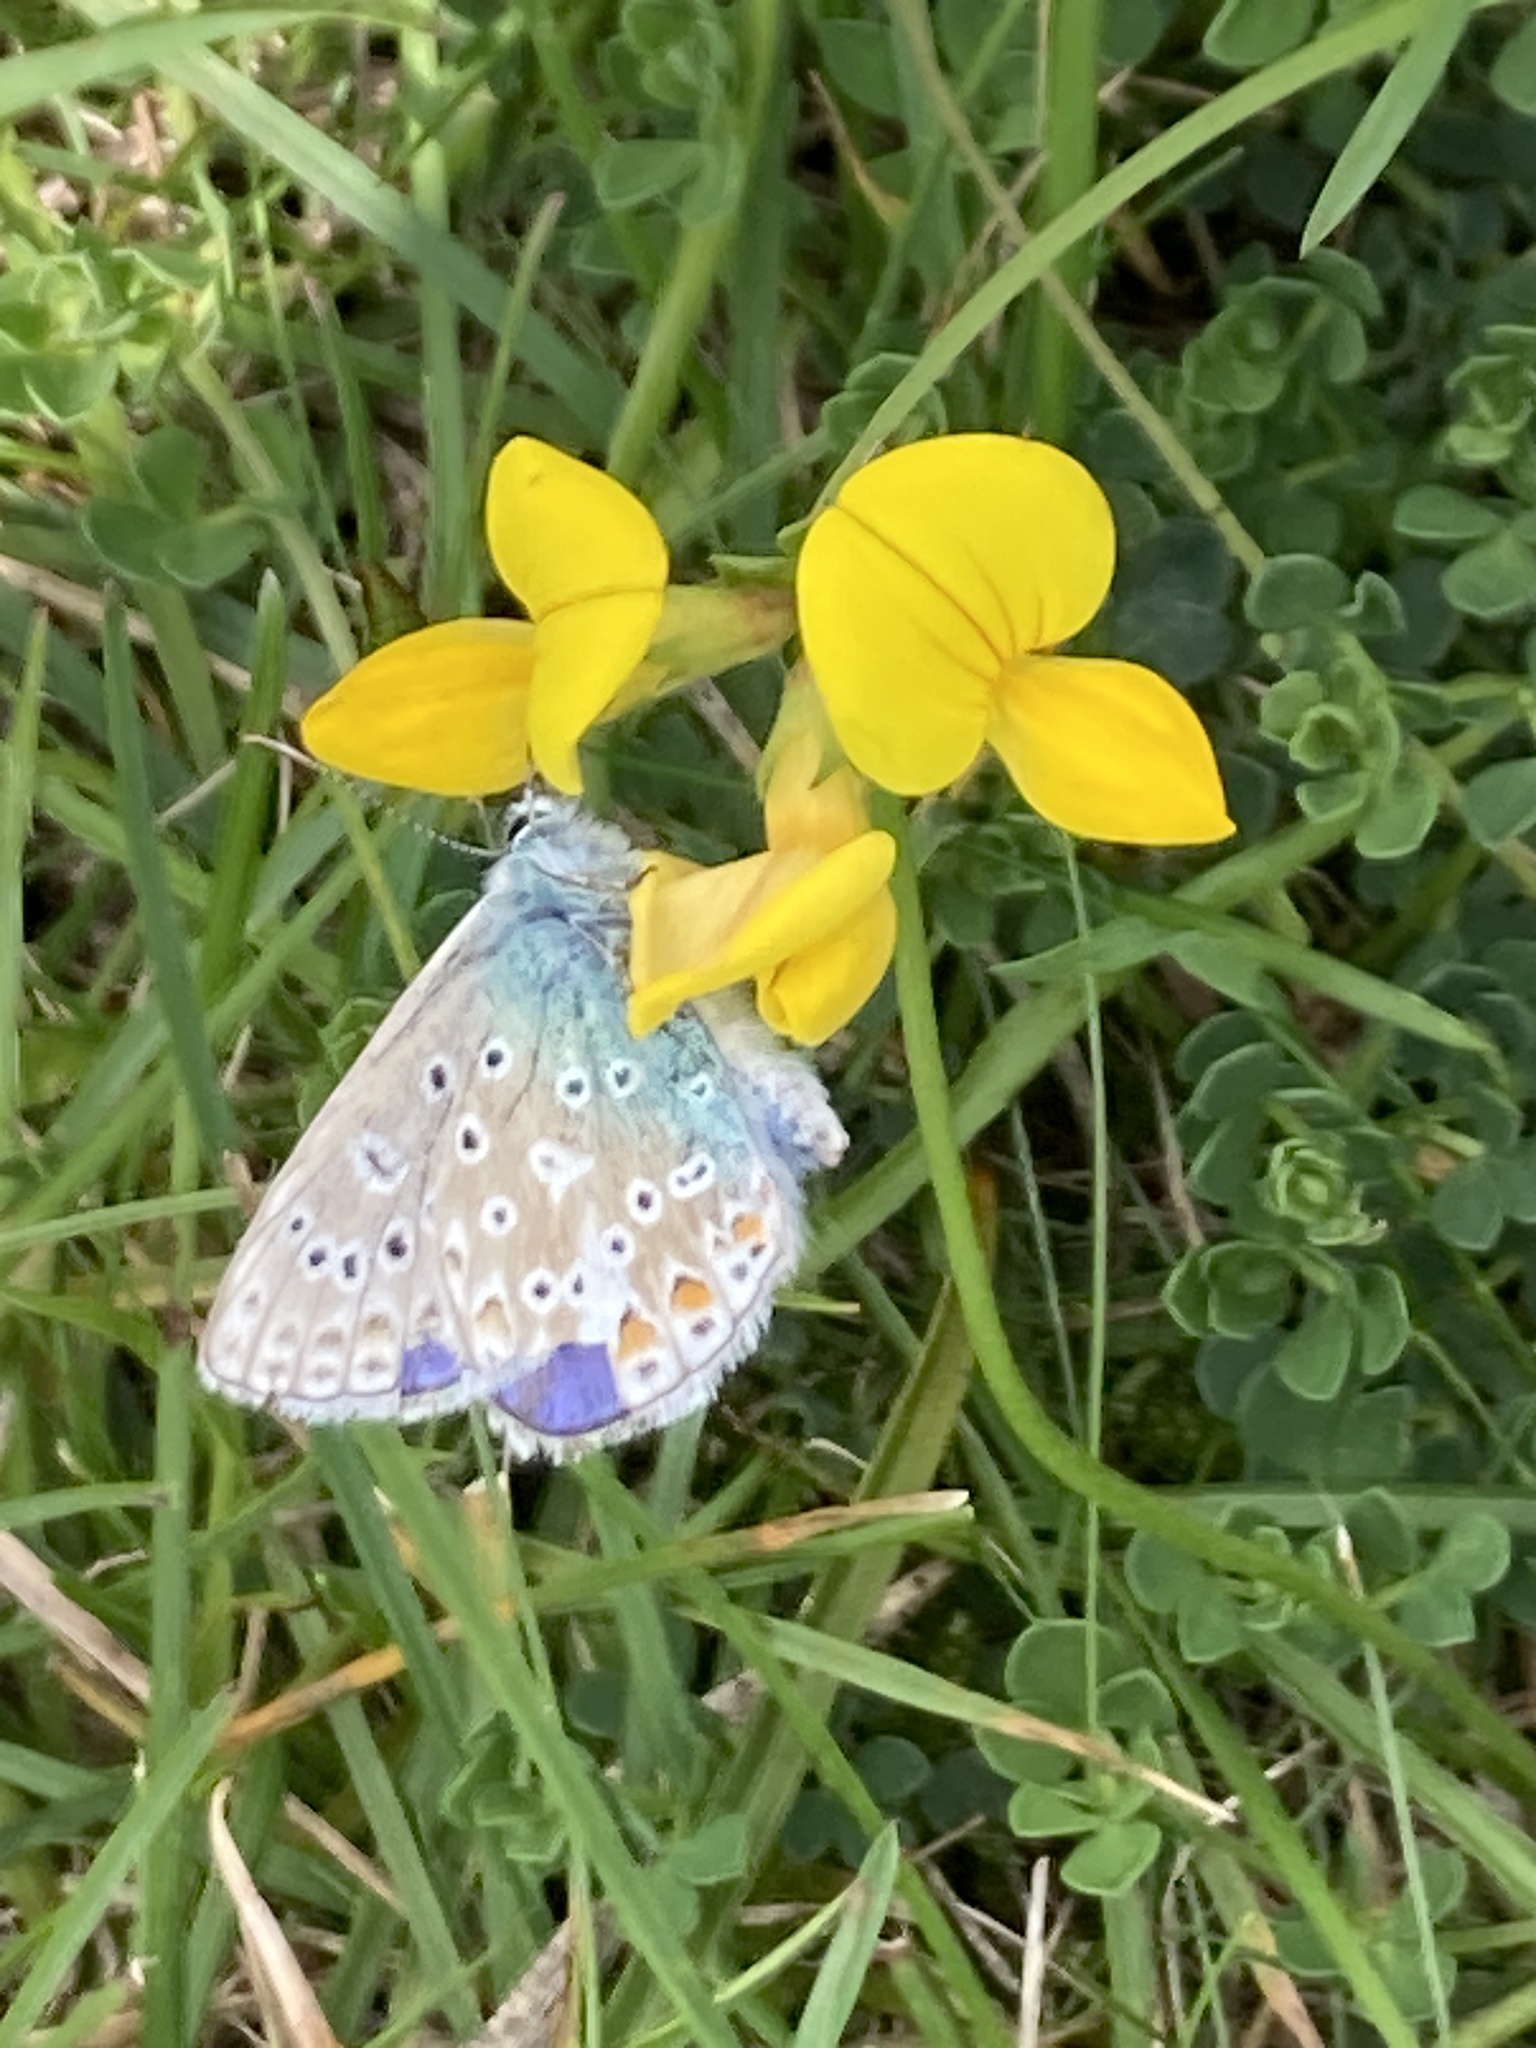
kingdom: Animalia
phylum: Arthropoda
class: Insecta
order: Lepidoptera
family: Lycaenidae
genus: Polyommatus
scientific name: Polyommatus icarus
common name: Common blue
